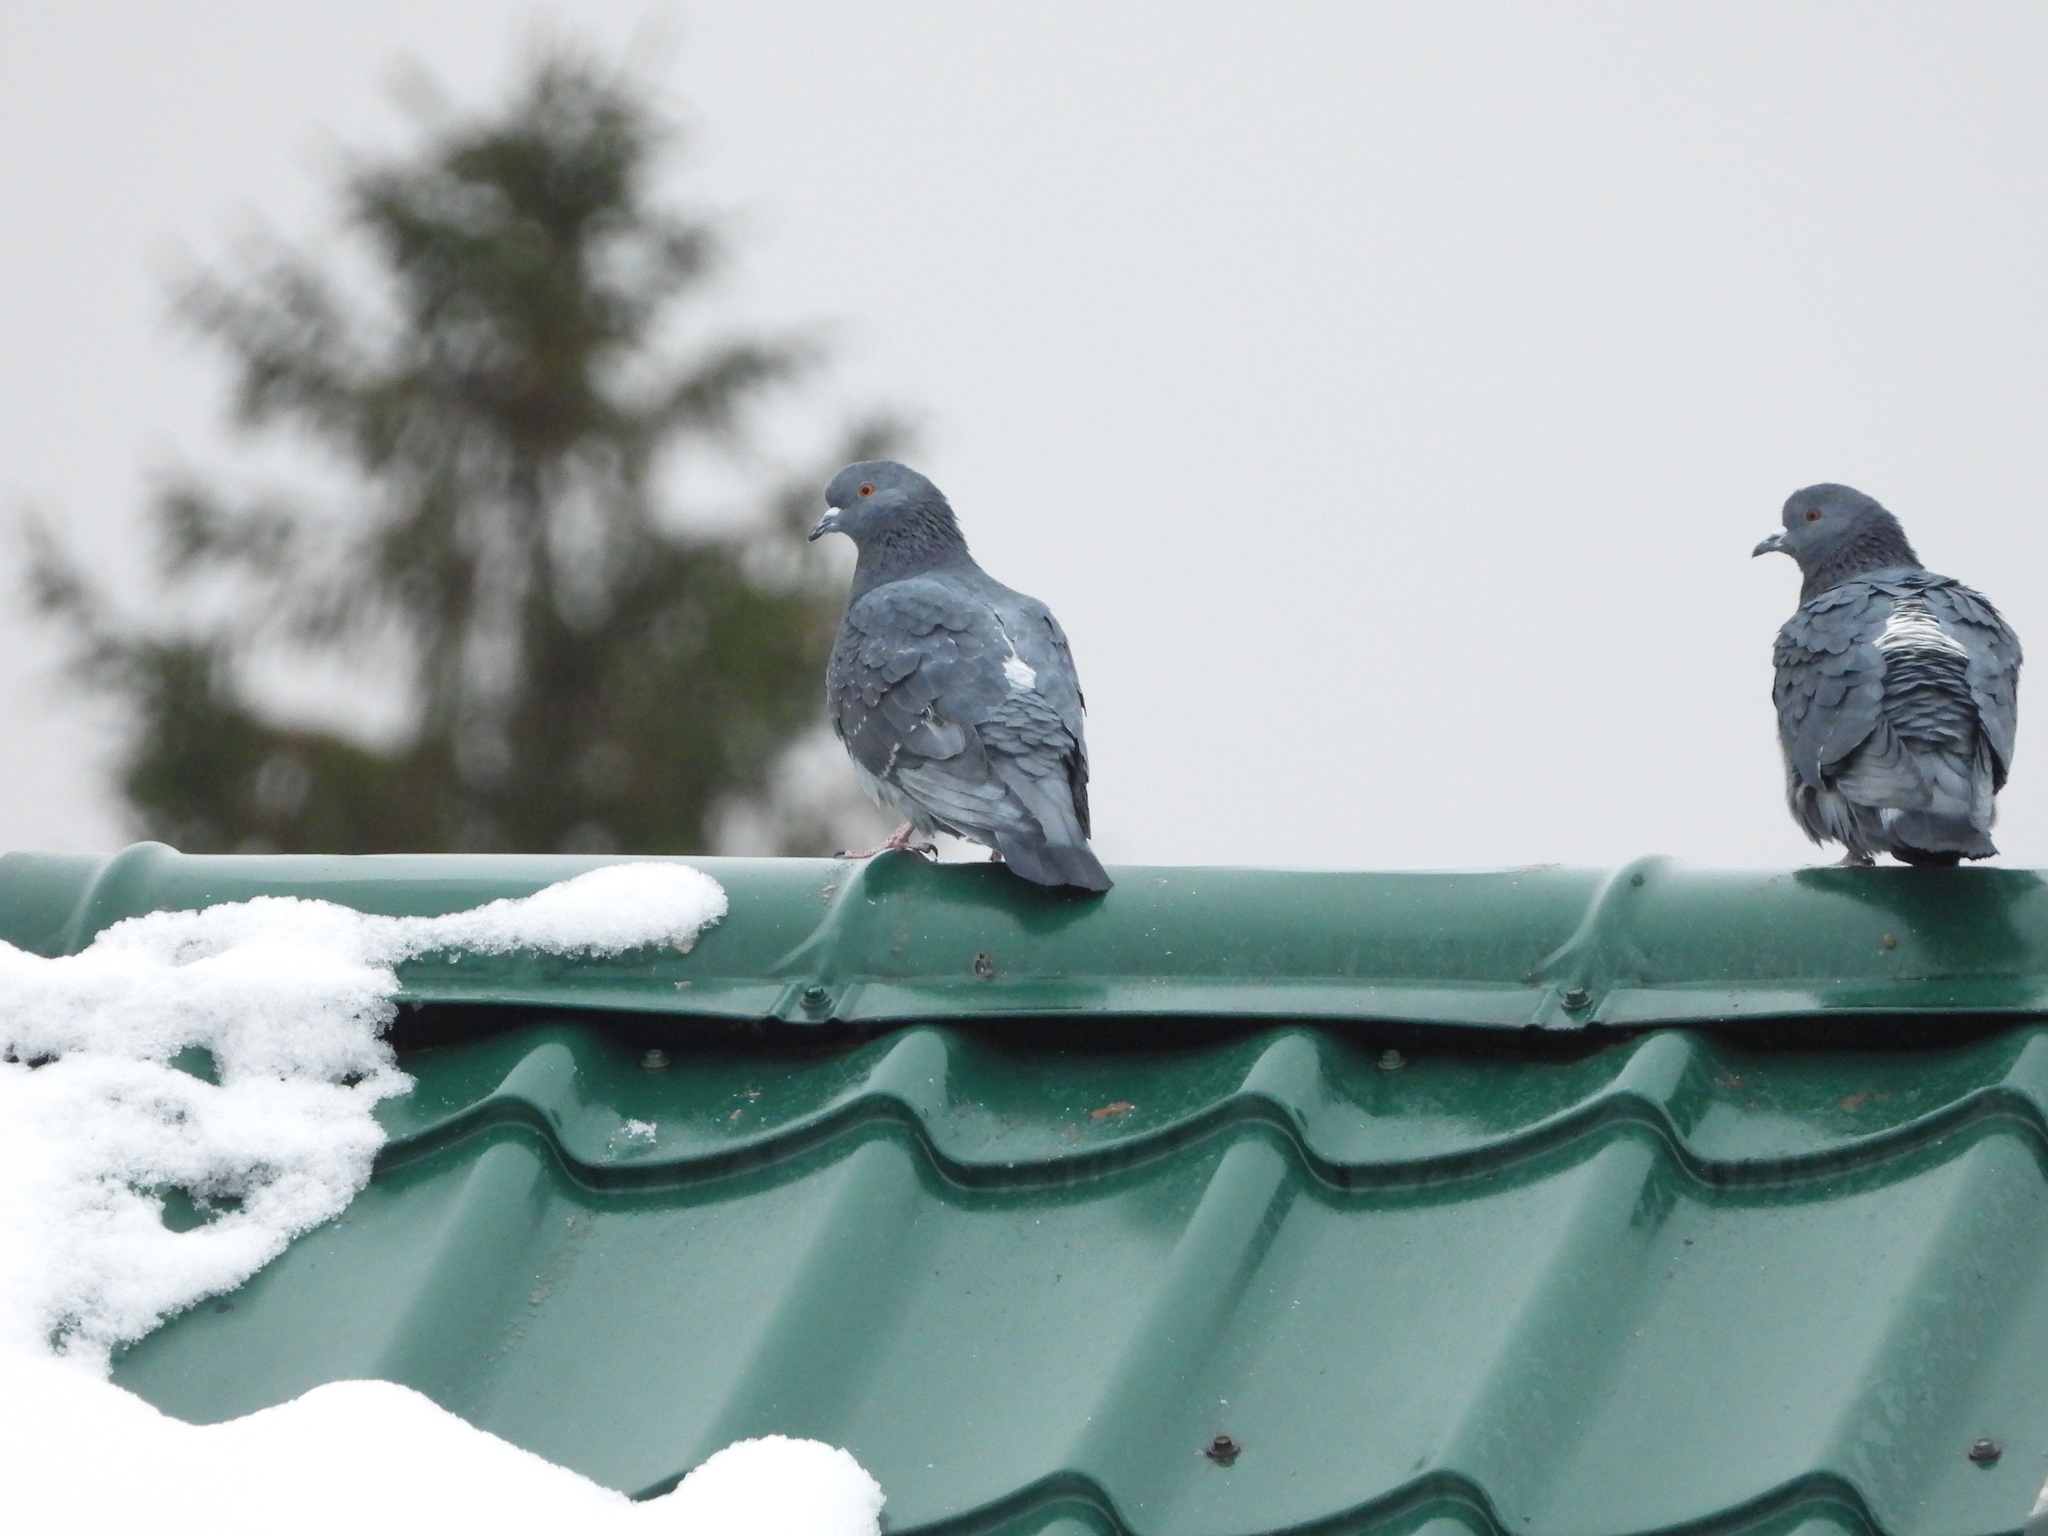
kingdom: Animalia
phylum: Chordata
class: Aves
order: Columbiformes
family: Columbidae
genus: Columba
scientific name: Columba livia
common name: Rock pigeon
